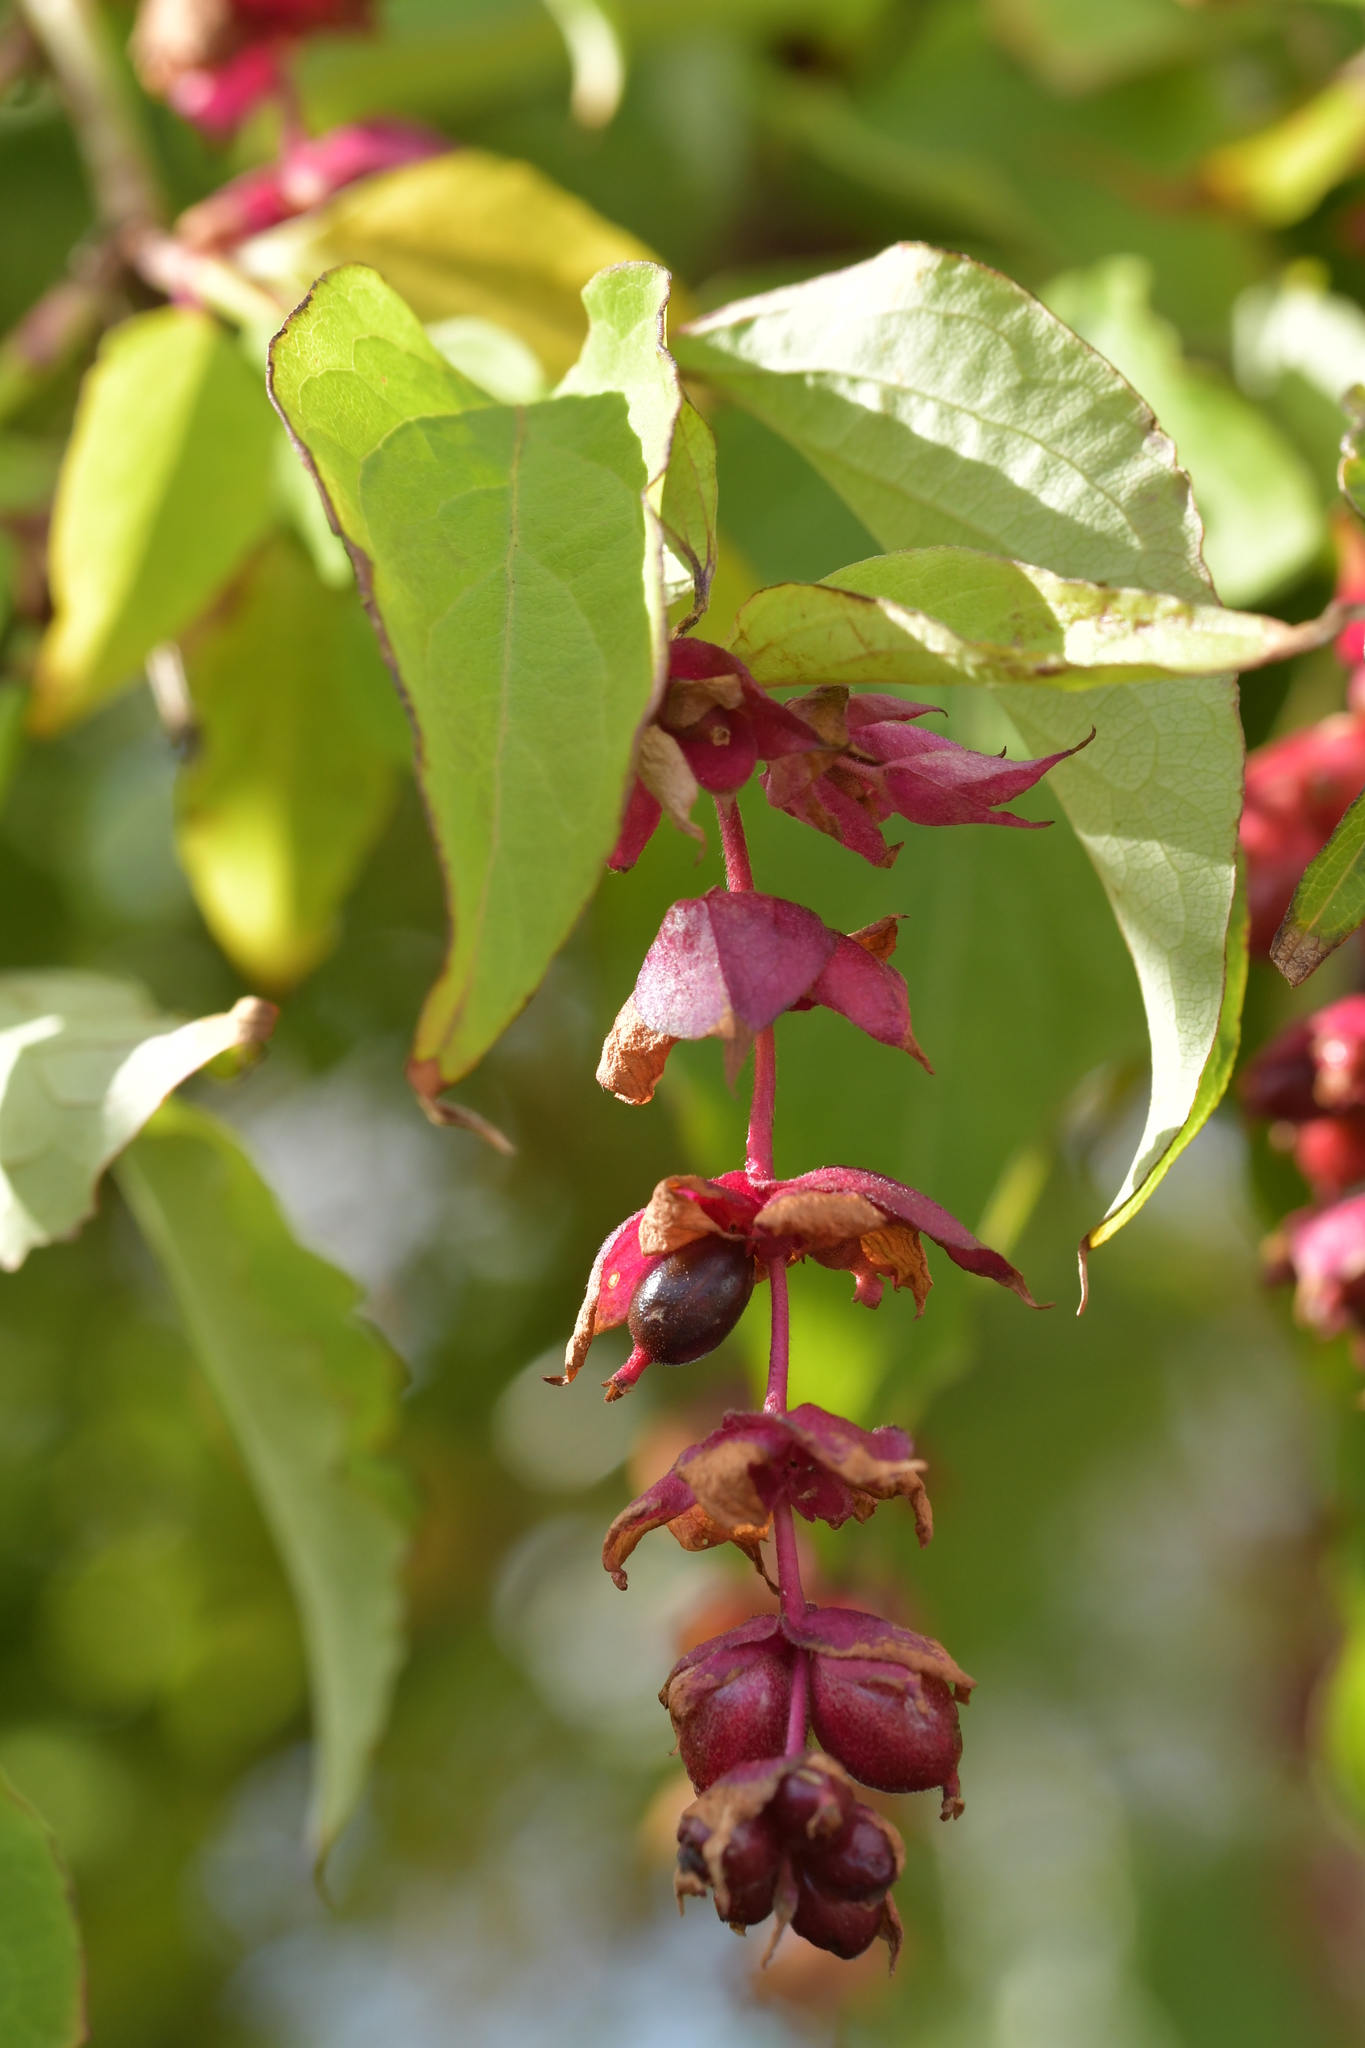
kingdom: Plantae
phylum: Tracheophyta
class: Magnoliopsida
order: Dipsacales
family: Caprifoliaceae
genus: Leycesteria
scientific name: Leycesteria formosa
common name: Himalayan honeysuckle
